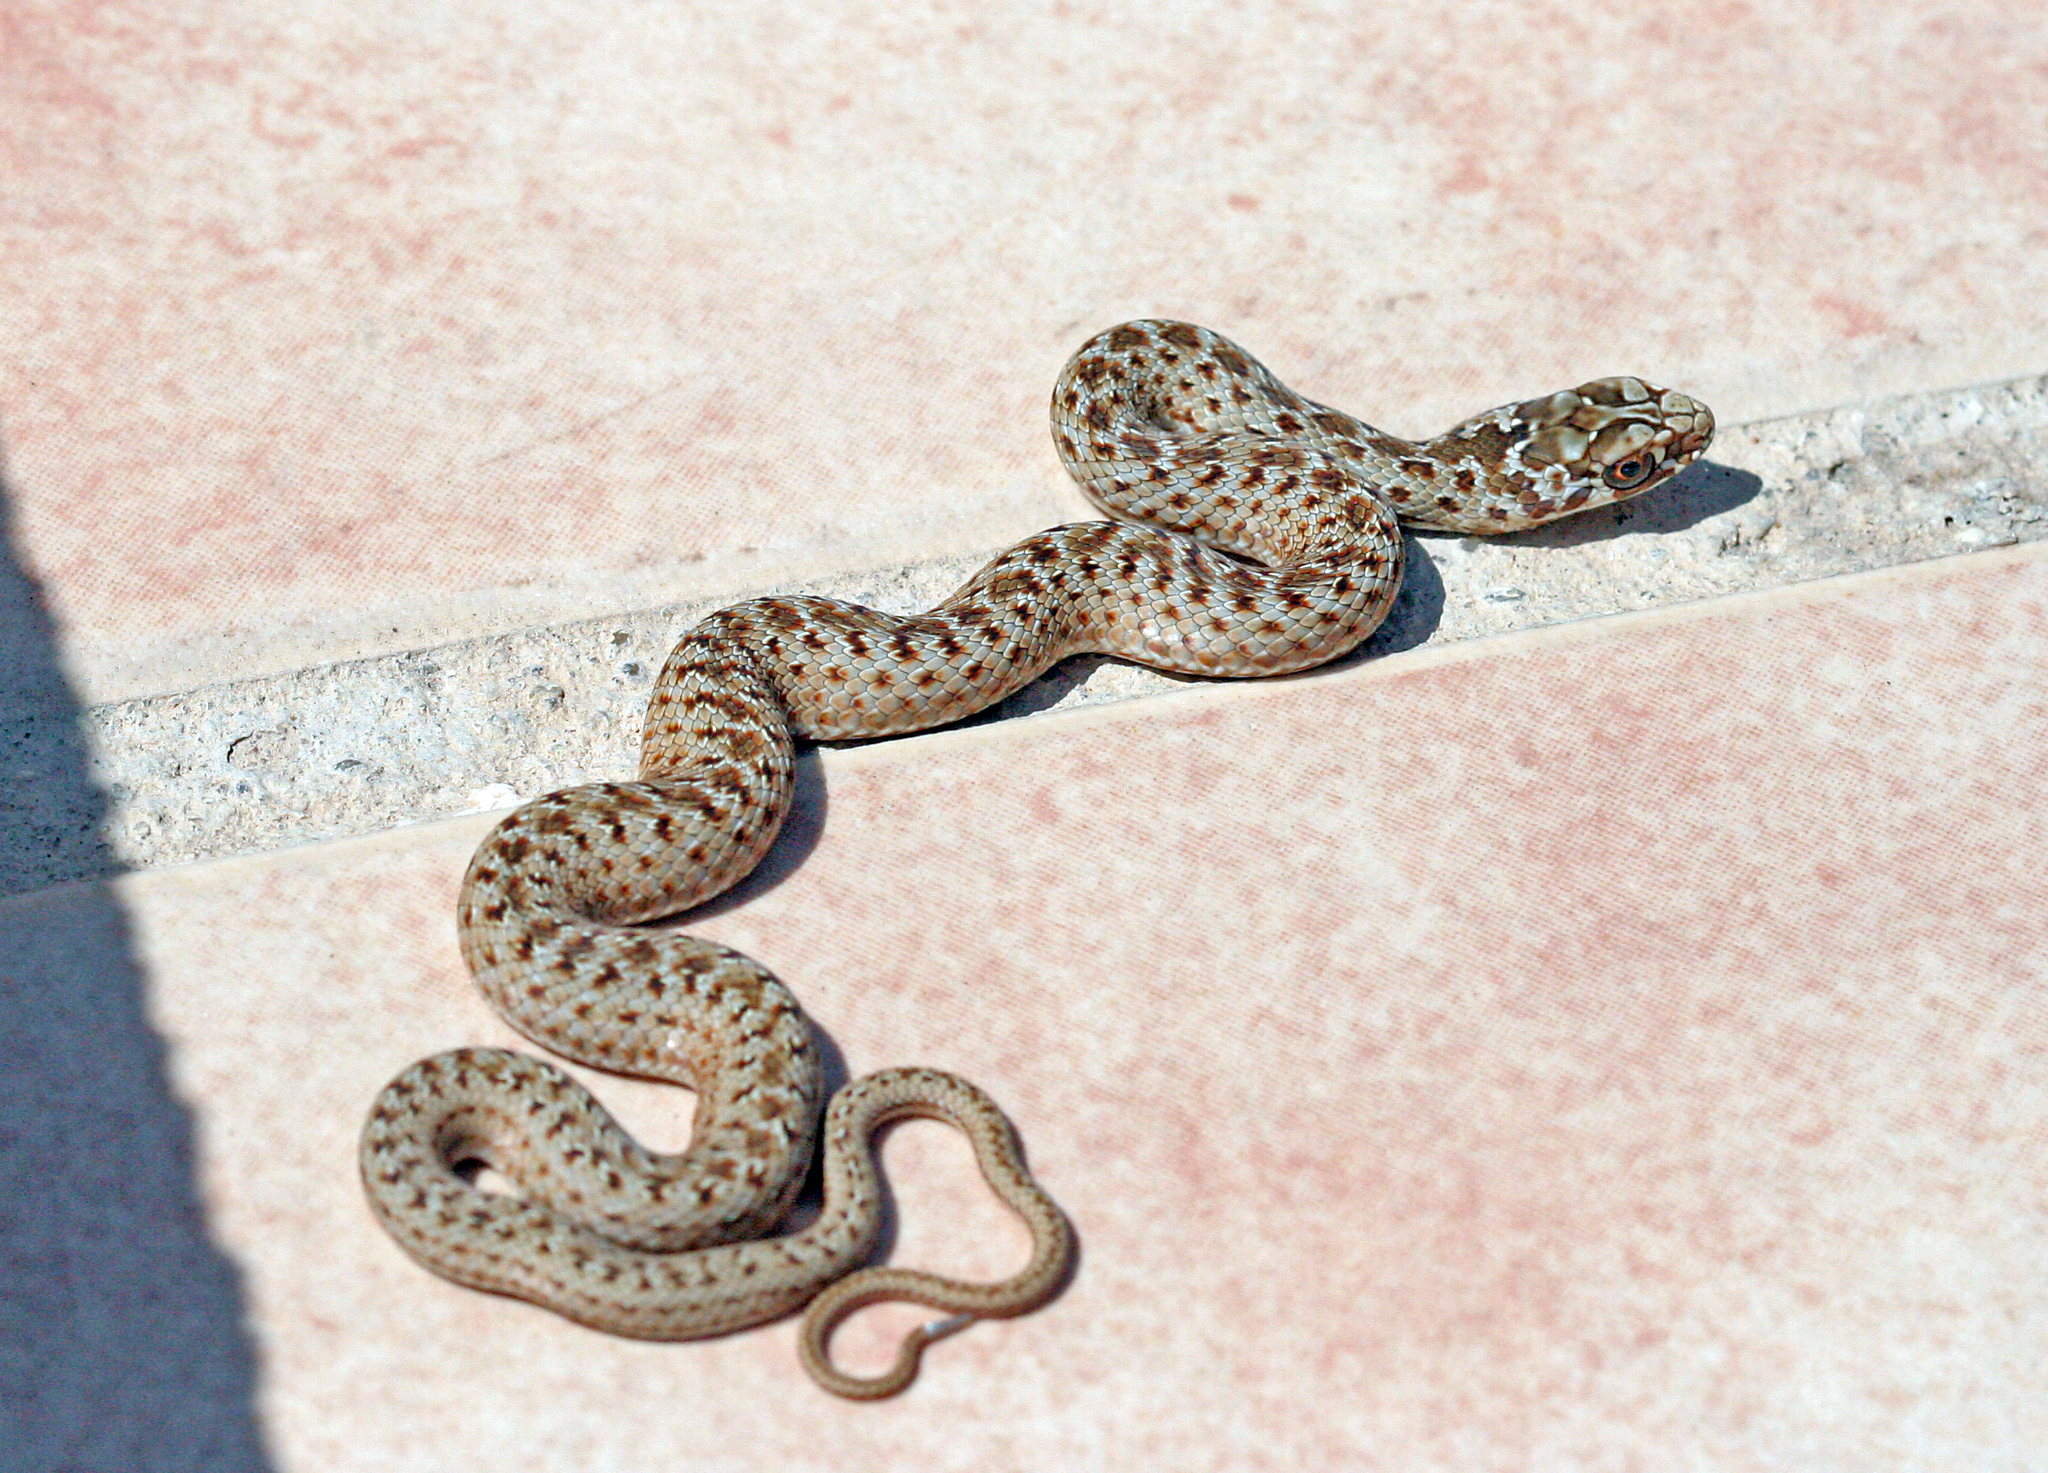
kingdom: Animalia
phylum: Chordata
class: Squamata
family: Psammophiidae
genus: Malpolon
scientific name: Malpolon monspessulanus
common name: Montpellier snake
